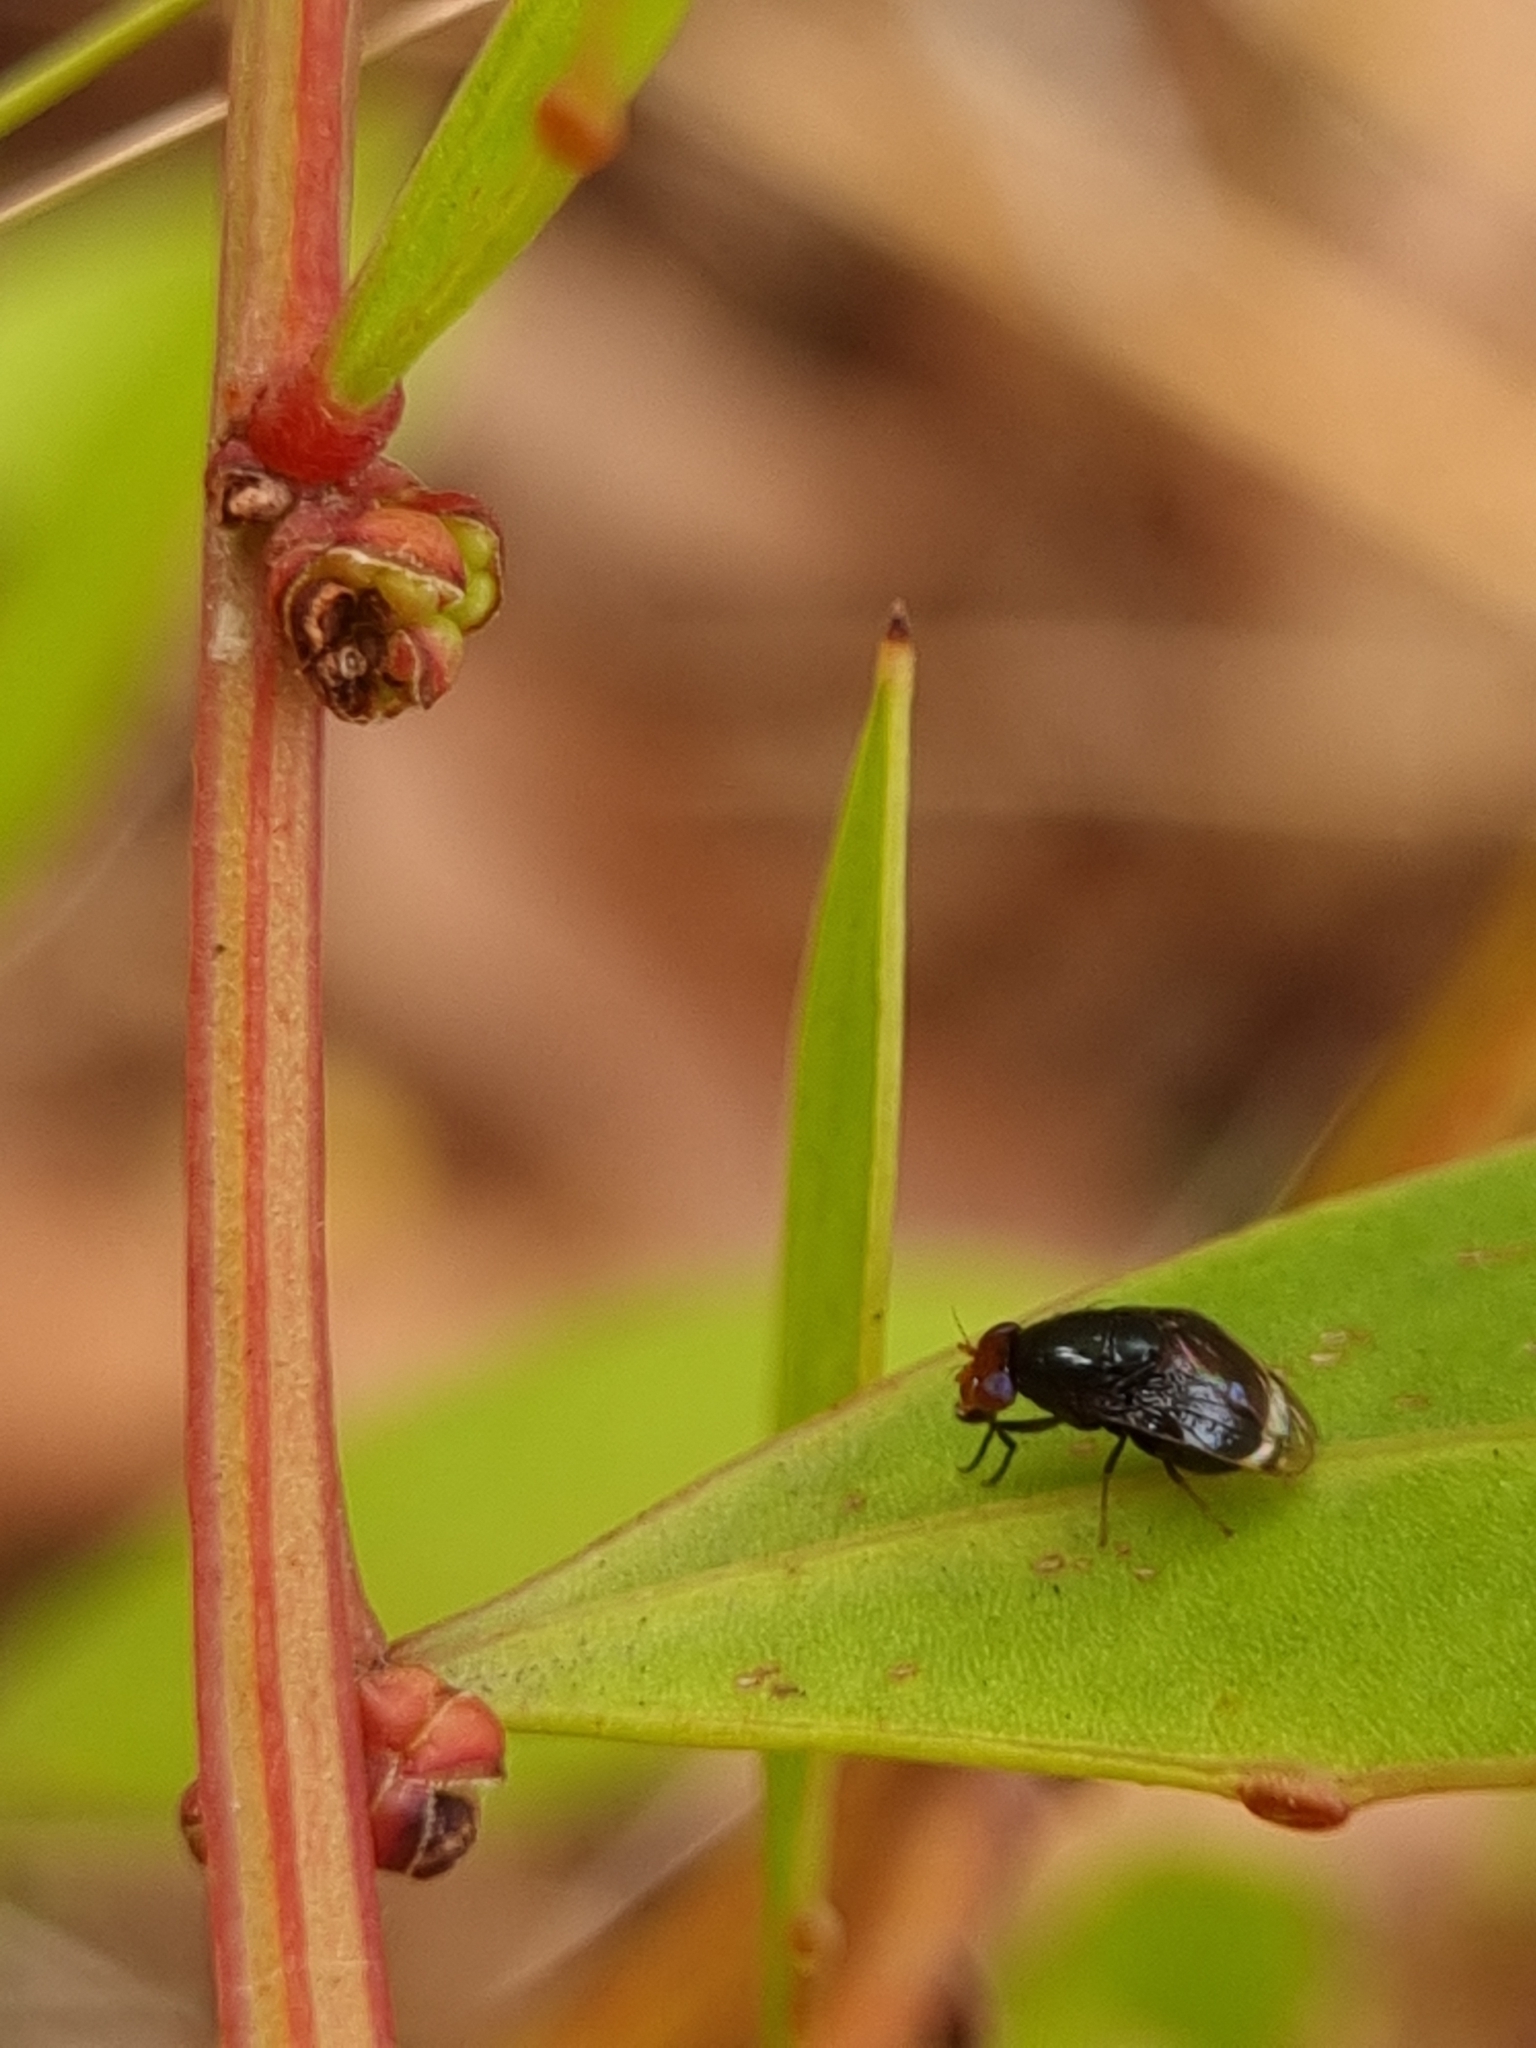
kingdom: Animalia
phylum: Arthropoda
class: Insecta
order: Diptera
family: Lauxaniidae
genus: Depressa
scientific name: Depressa atrata
